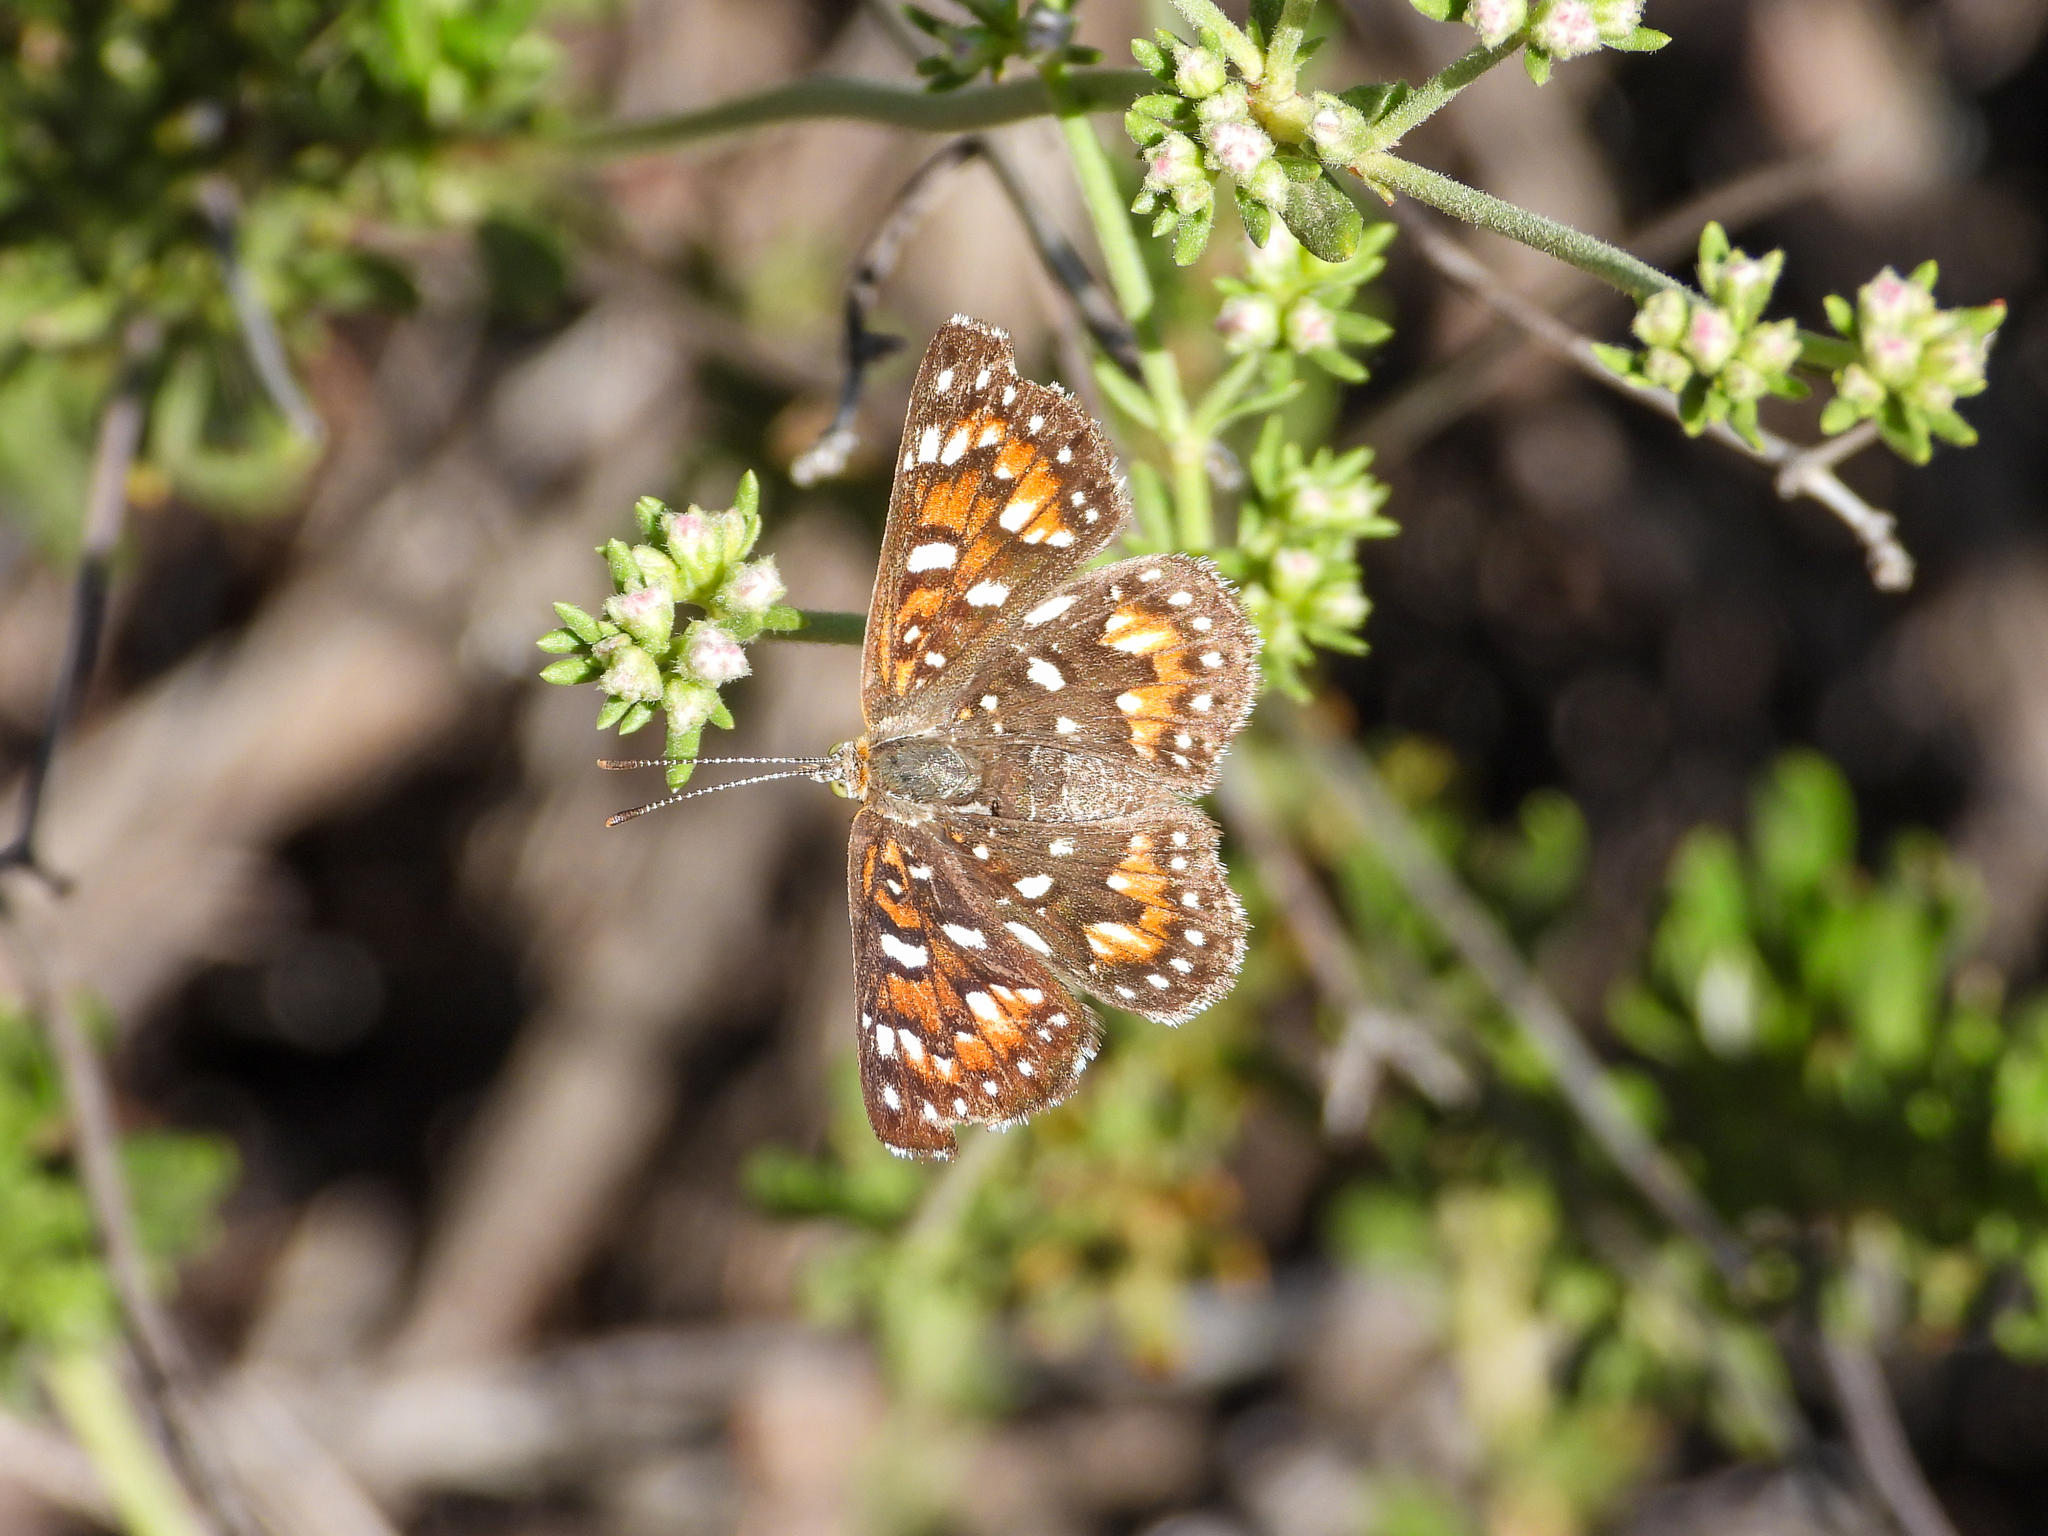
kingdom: Animalia
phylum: Arthropoda
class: Insecta
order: Lepidoptera
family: Riodinidae
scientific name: Riodinidae
